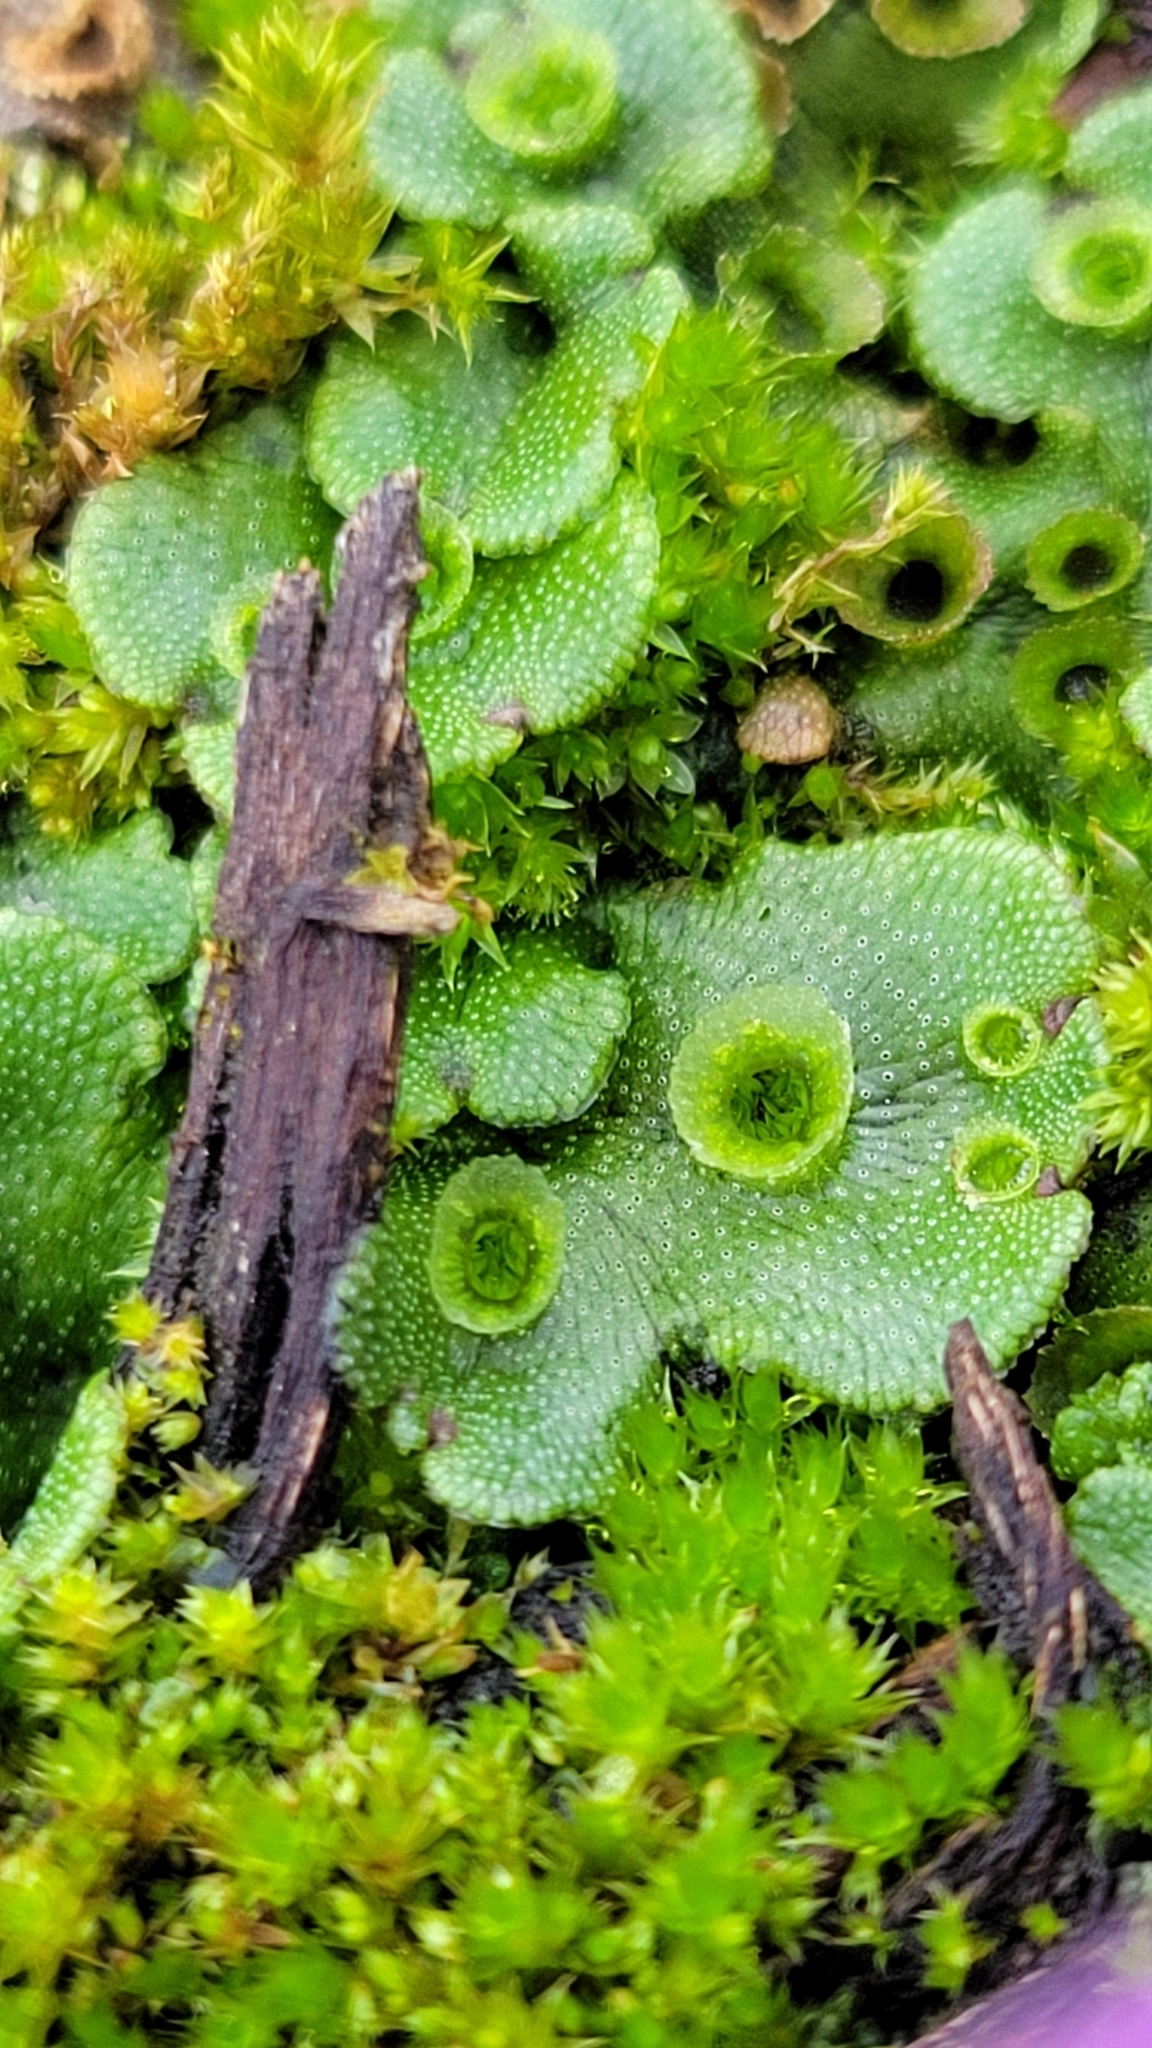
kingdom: Plantae
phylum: Marchantiophyta
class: Marchantiopsida
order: Marchantiales
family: Marchantiaceae
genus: Marchantia
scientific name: Marchantia polymorpha
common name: Common liverwort
